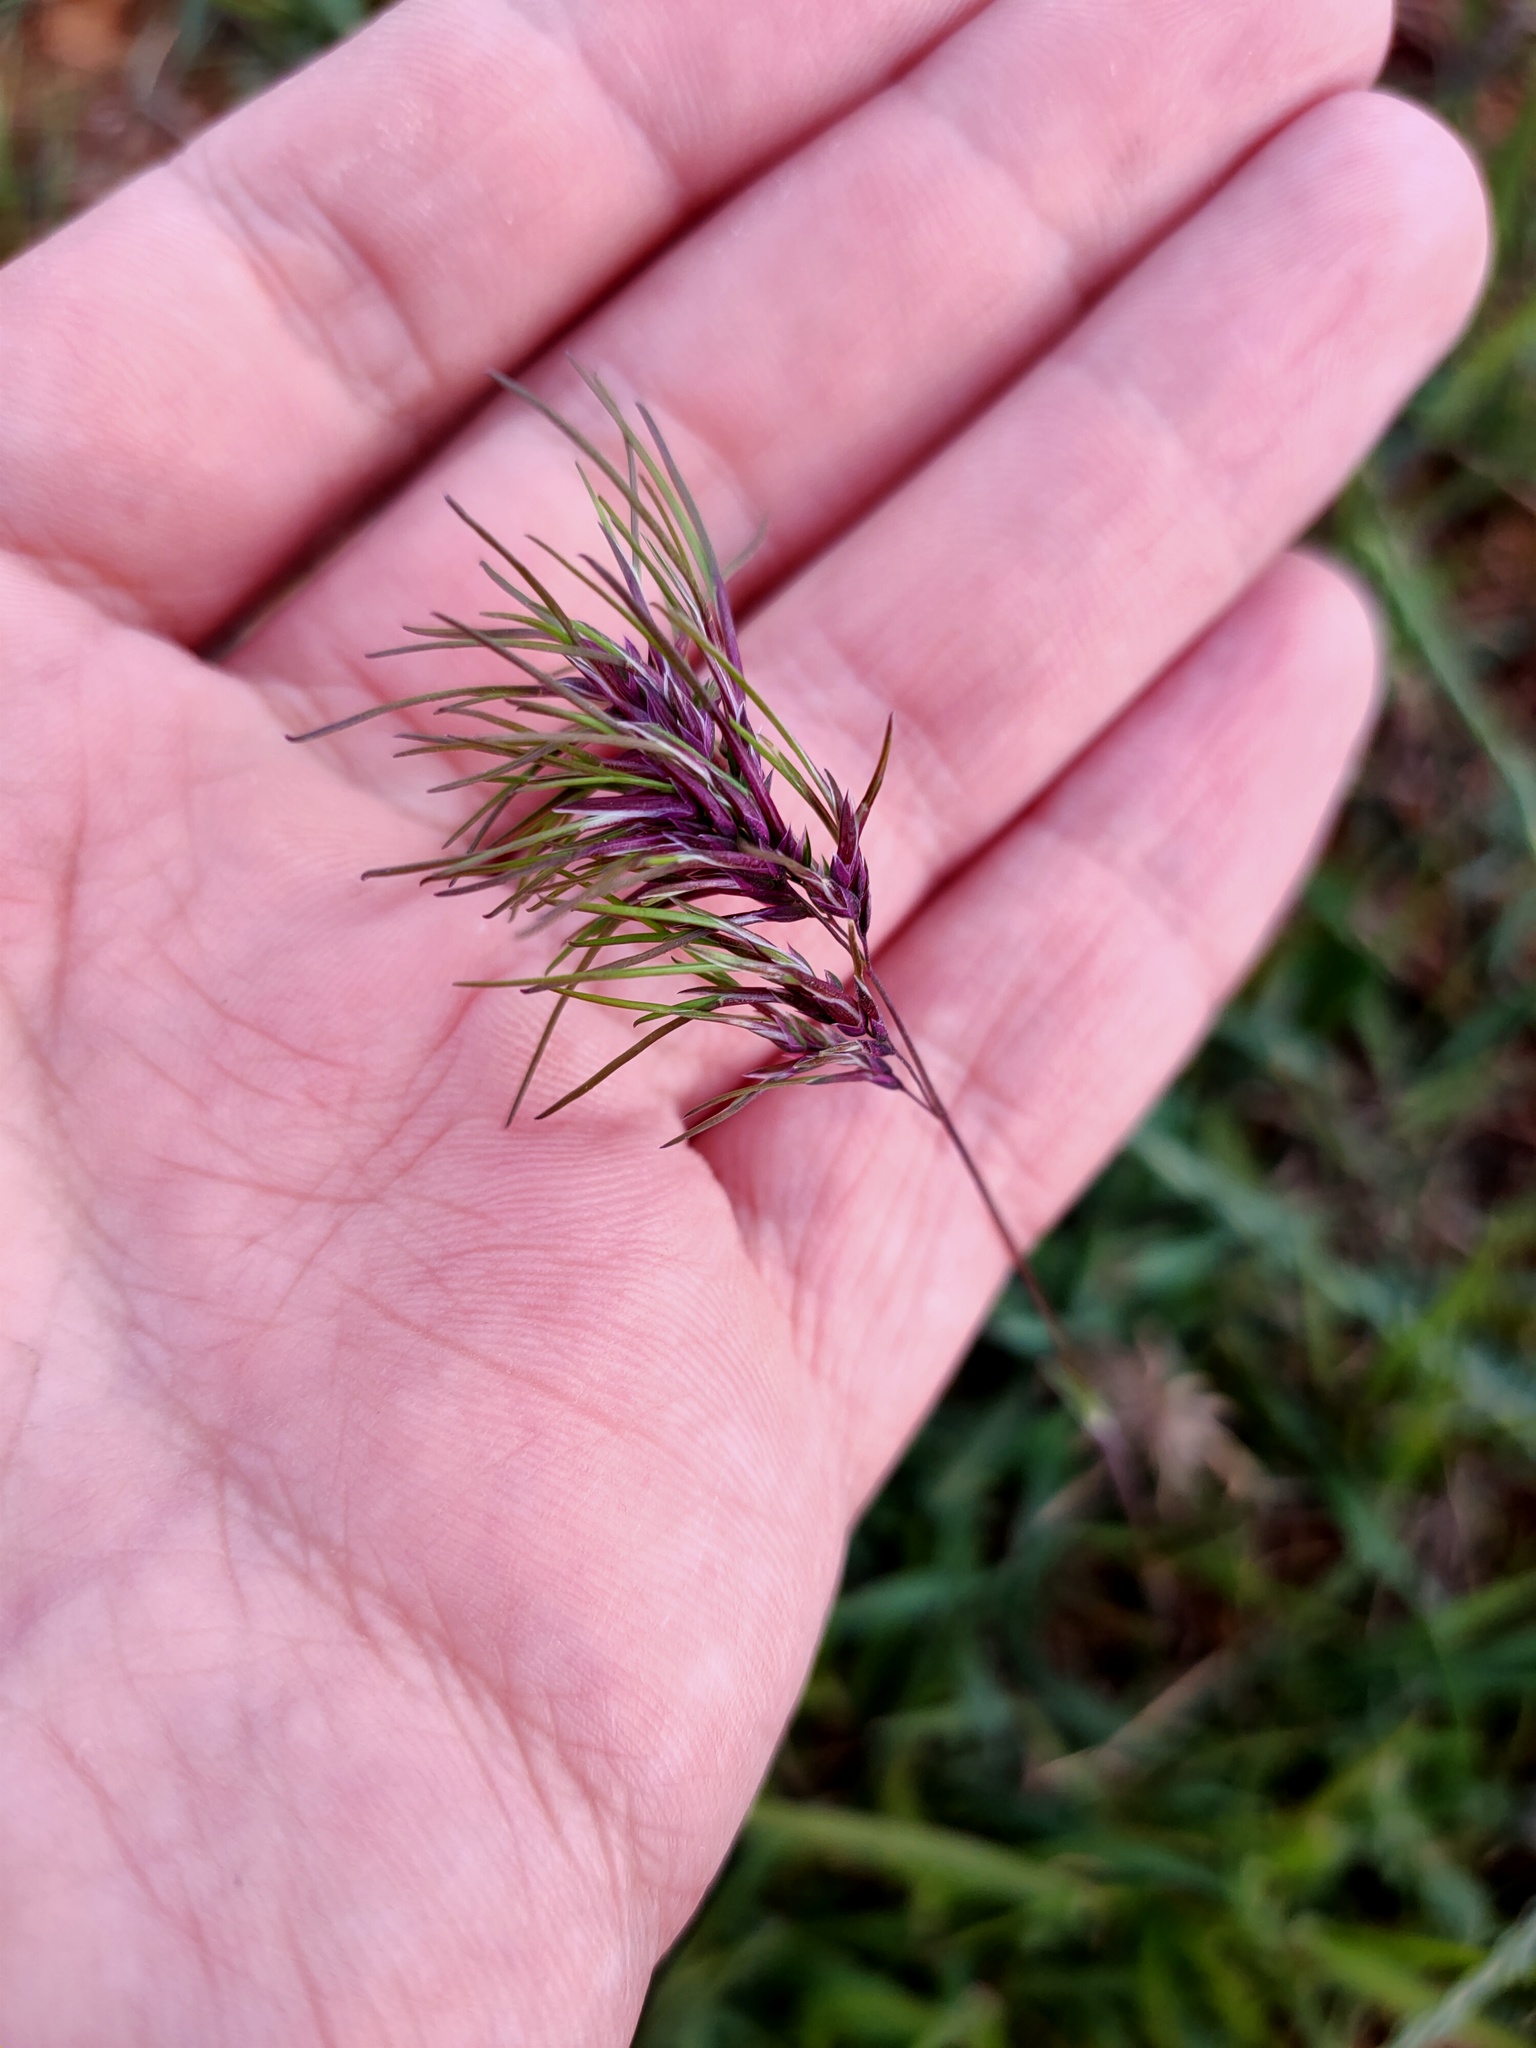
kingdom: Plantae
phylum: Tracheophyta
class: Liliopsida
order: Poales
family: Poaceae
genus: Poa
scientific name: Poa bulbosa
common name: Bulbous bluegrass
